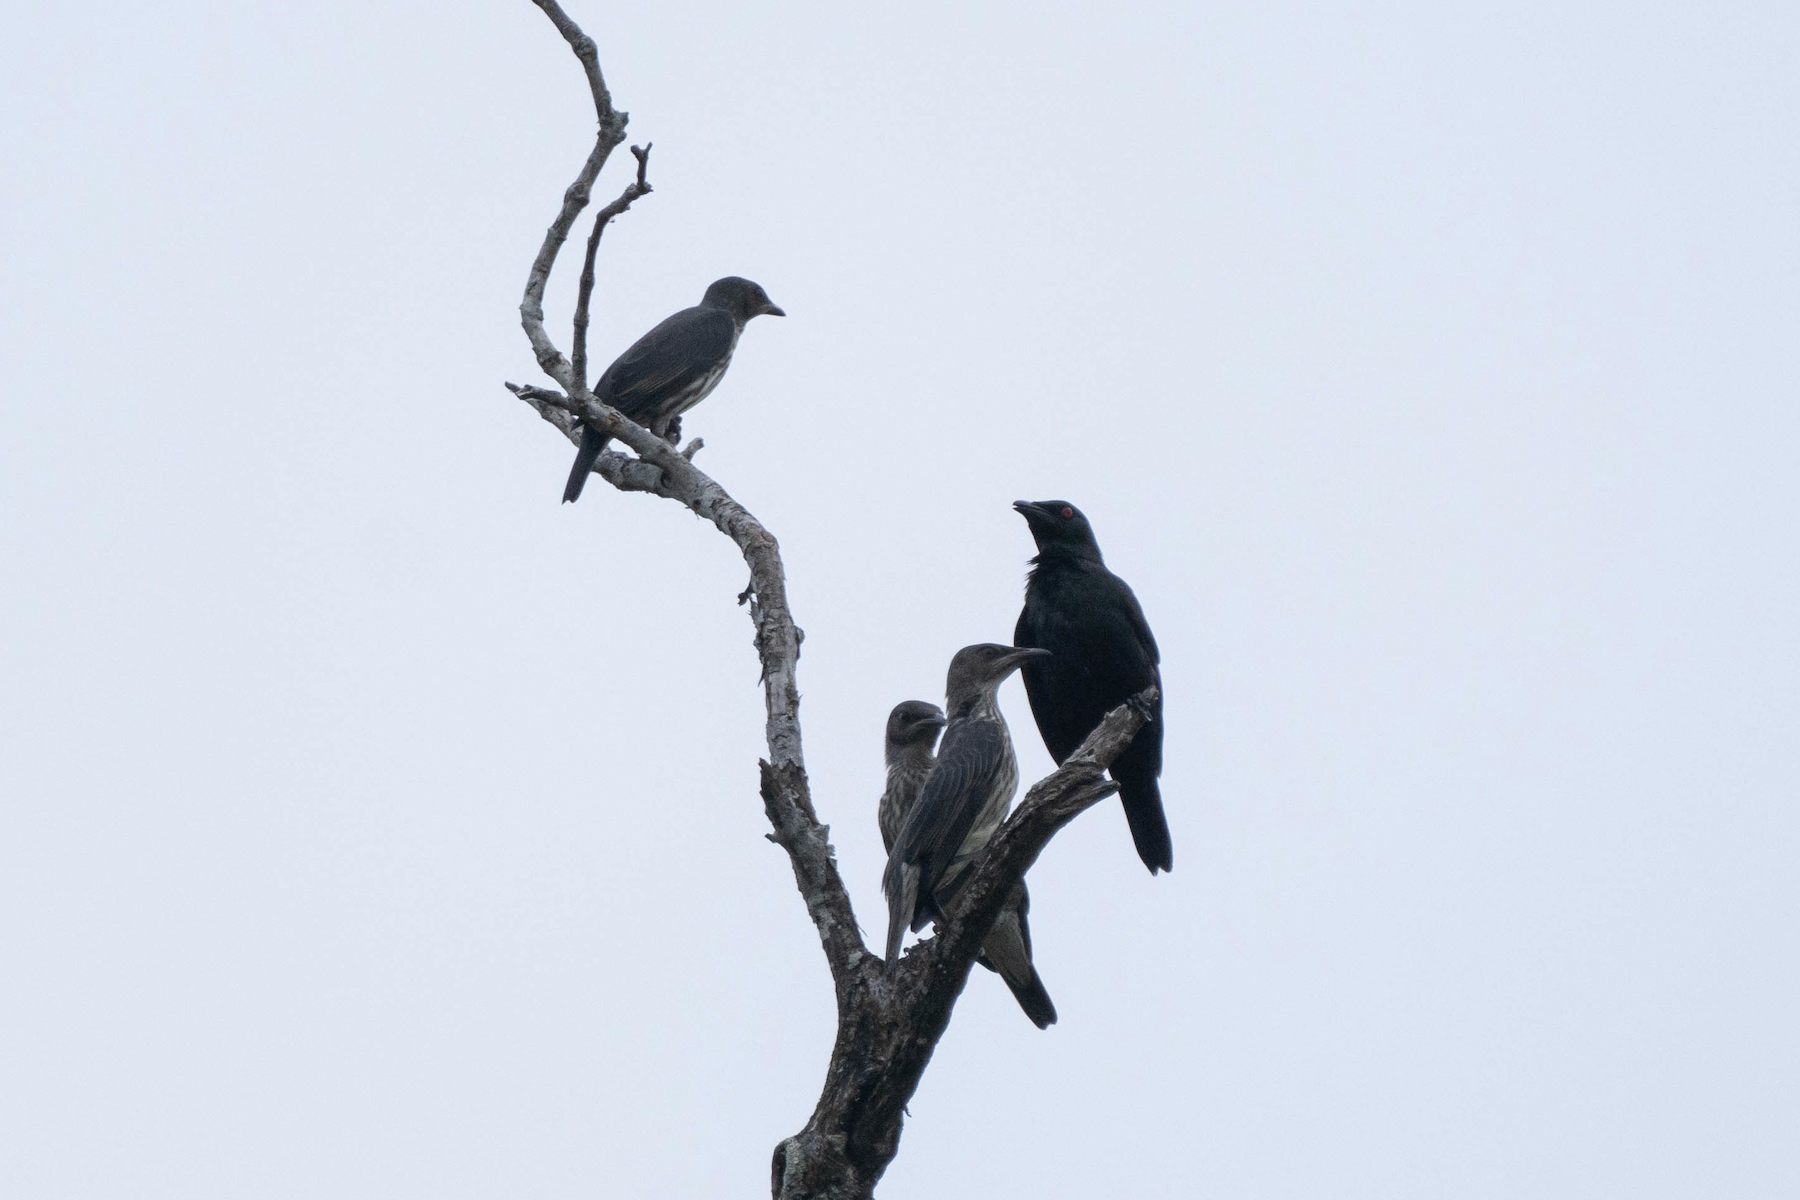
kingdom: Animalia
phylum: Chordata
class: Aves
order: Passeriformes
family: Sturnidae
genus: Aplonis
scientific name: Aplonis panayensis
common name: Asian glossy starling
